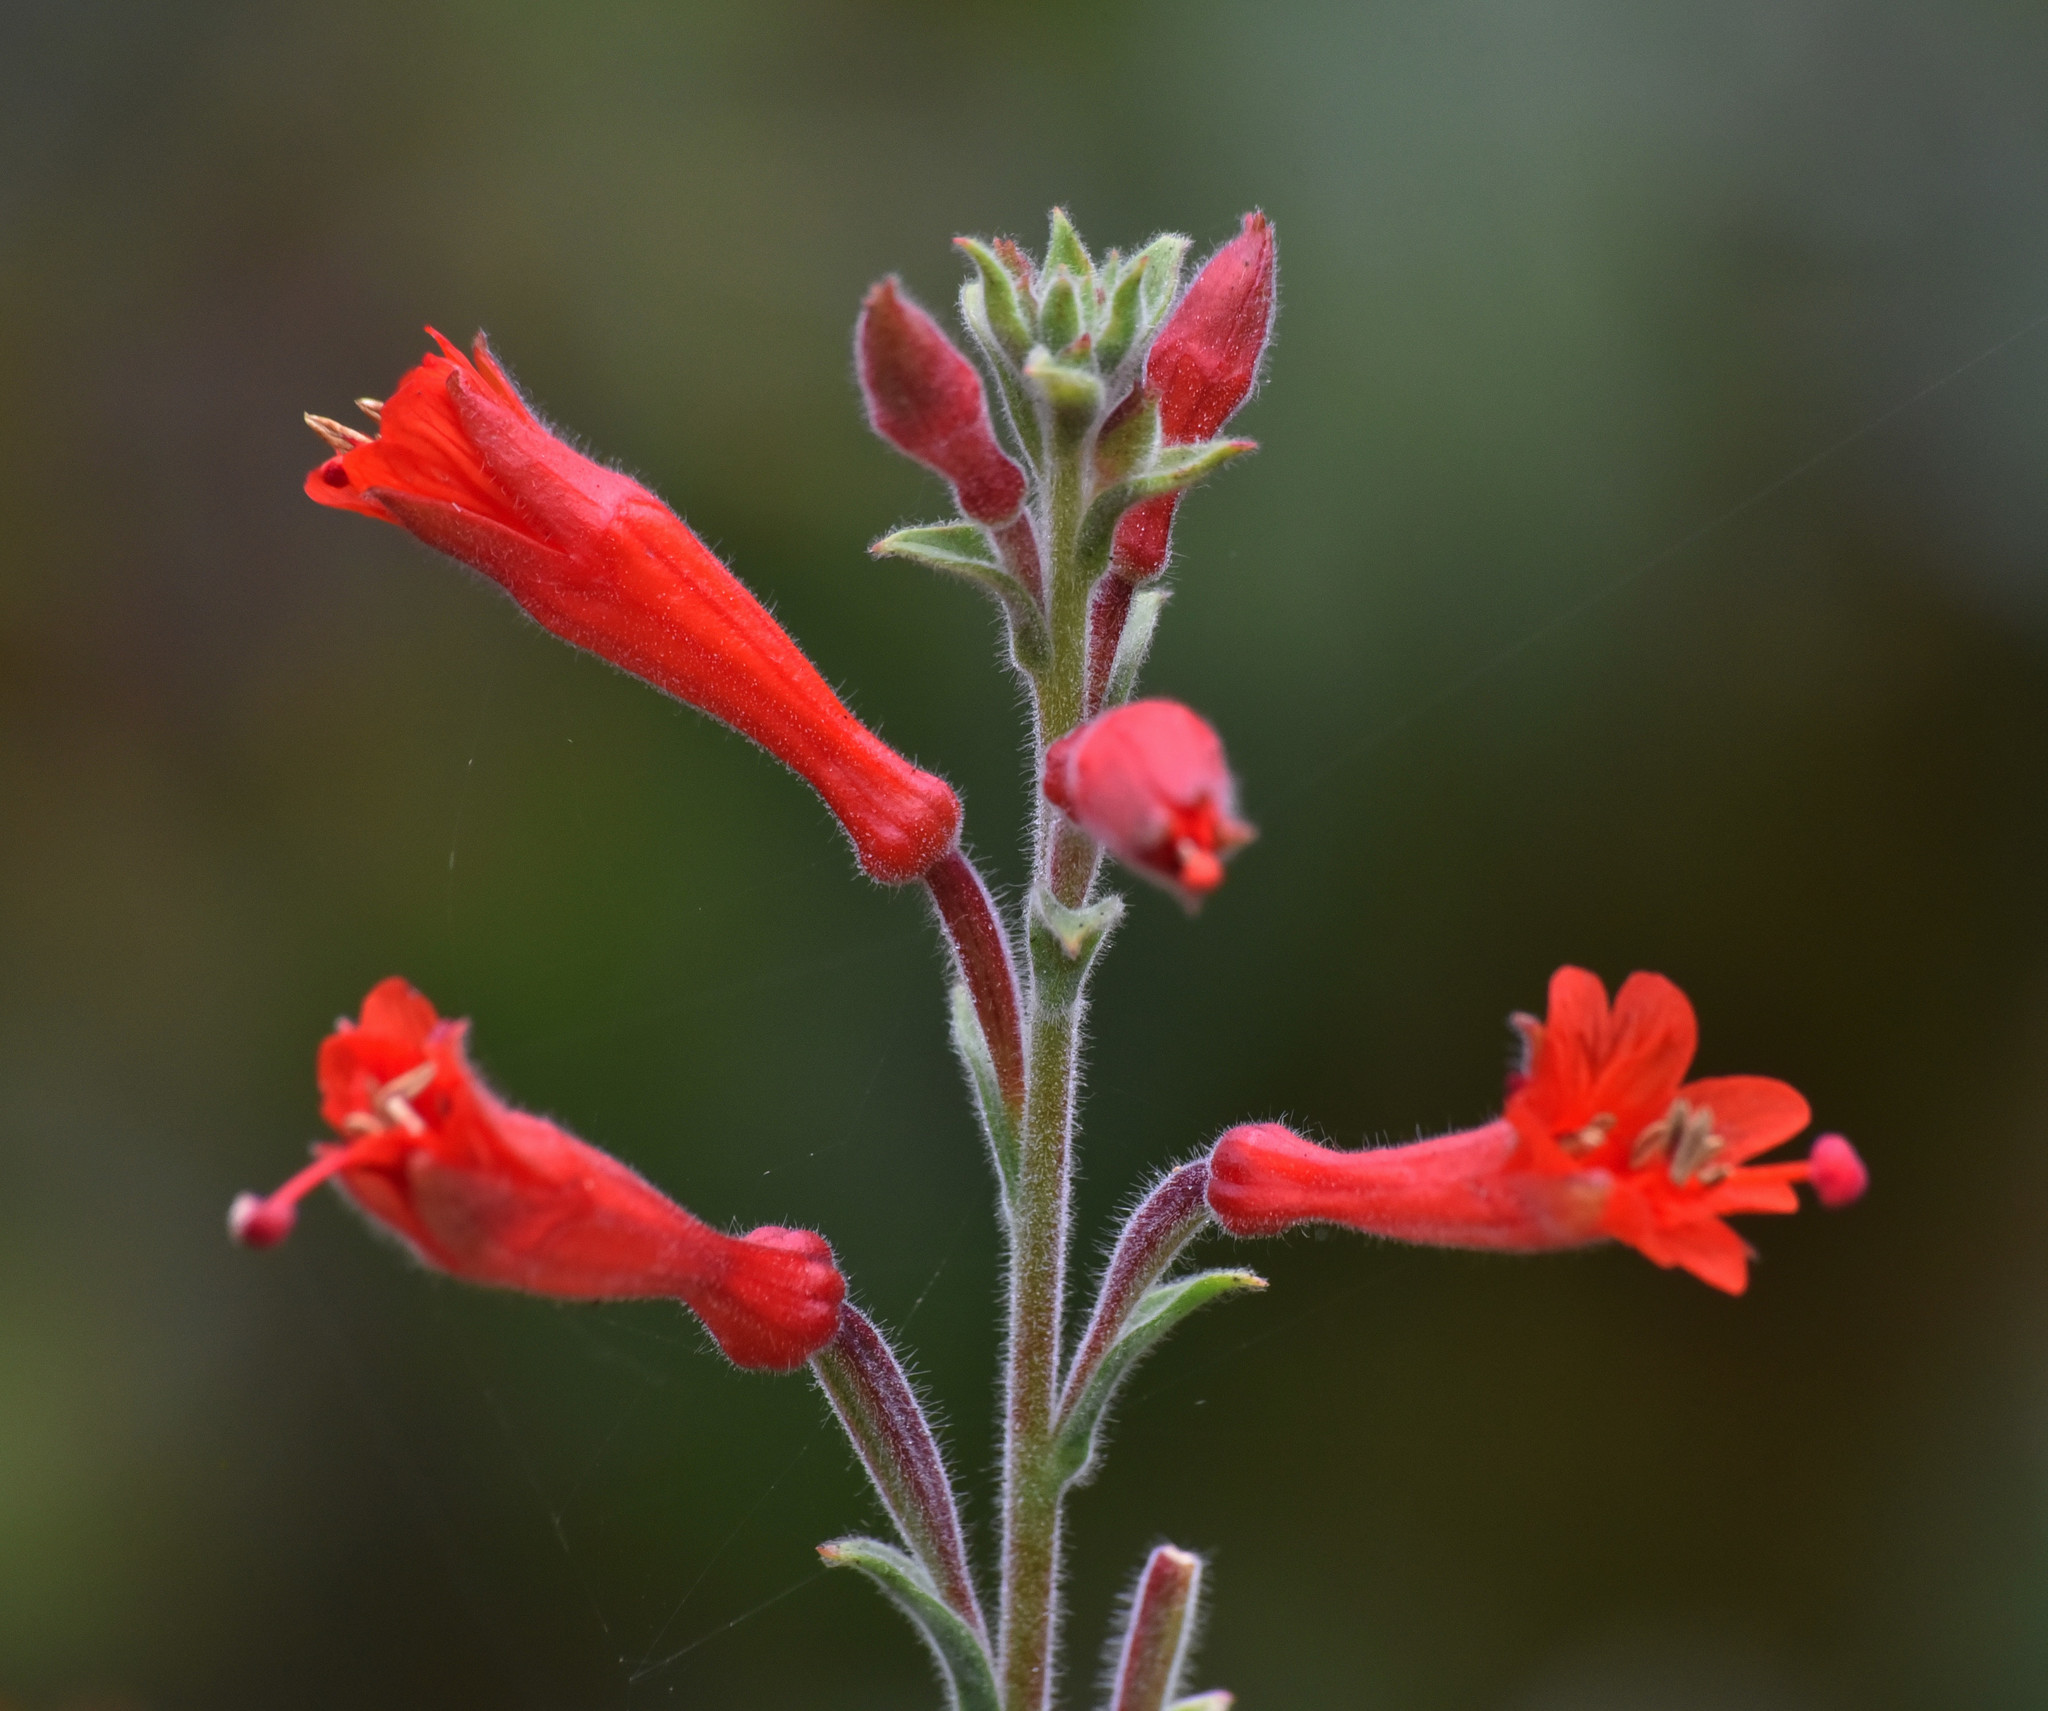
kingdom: Plantae
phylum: Tracheophyta
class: Magnoliopsida
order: Myrtales
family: Onagraceae
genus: Epilobium
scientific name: Epilobium canum
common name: California-fuchsia
